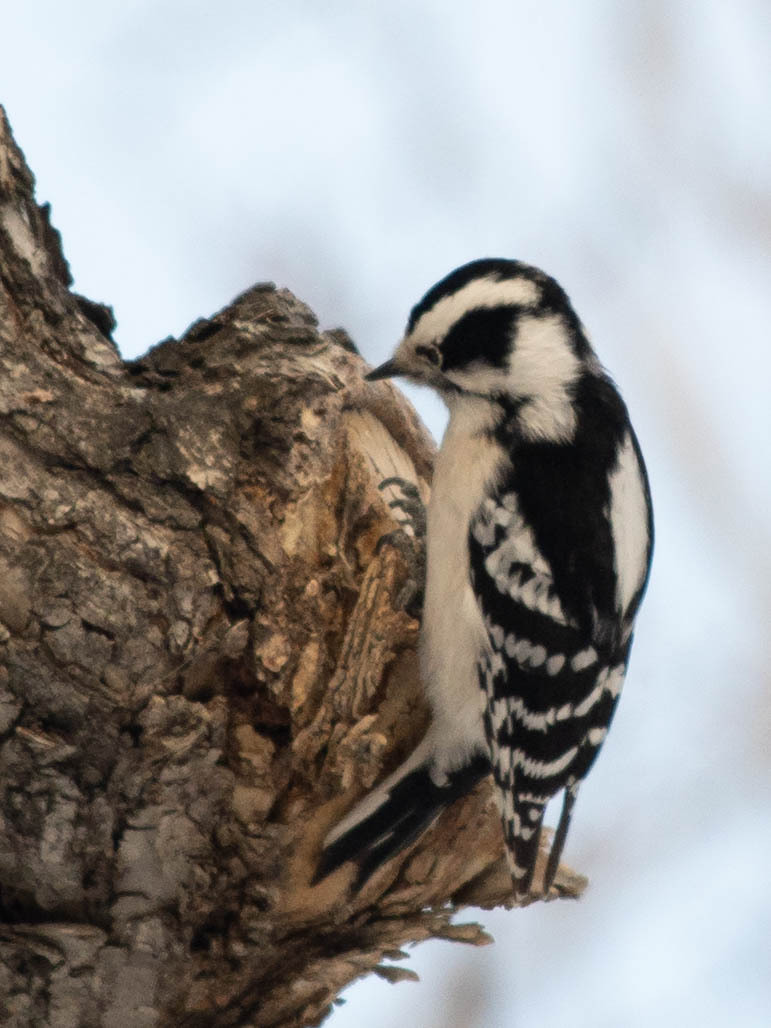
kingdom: Animalia
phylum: Chordata
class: Aves
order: Piciformes
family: Picidae
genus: Dryobates
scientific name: Dryobates pubescens
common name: Downy woodpecker
